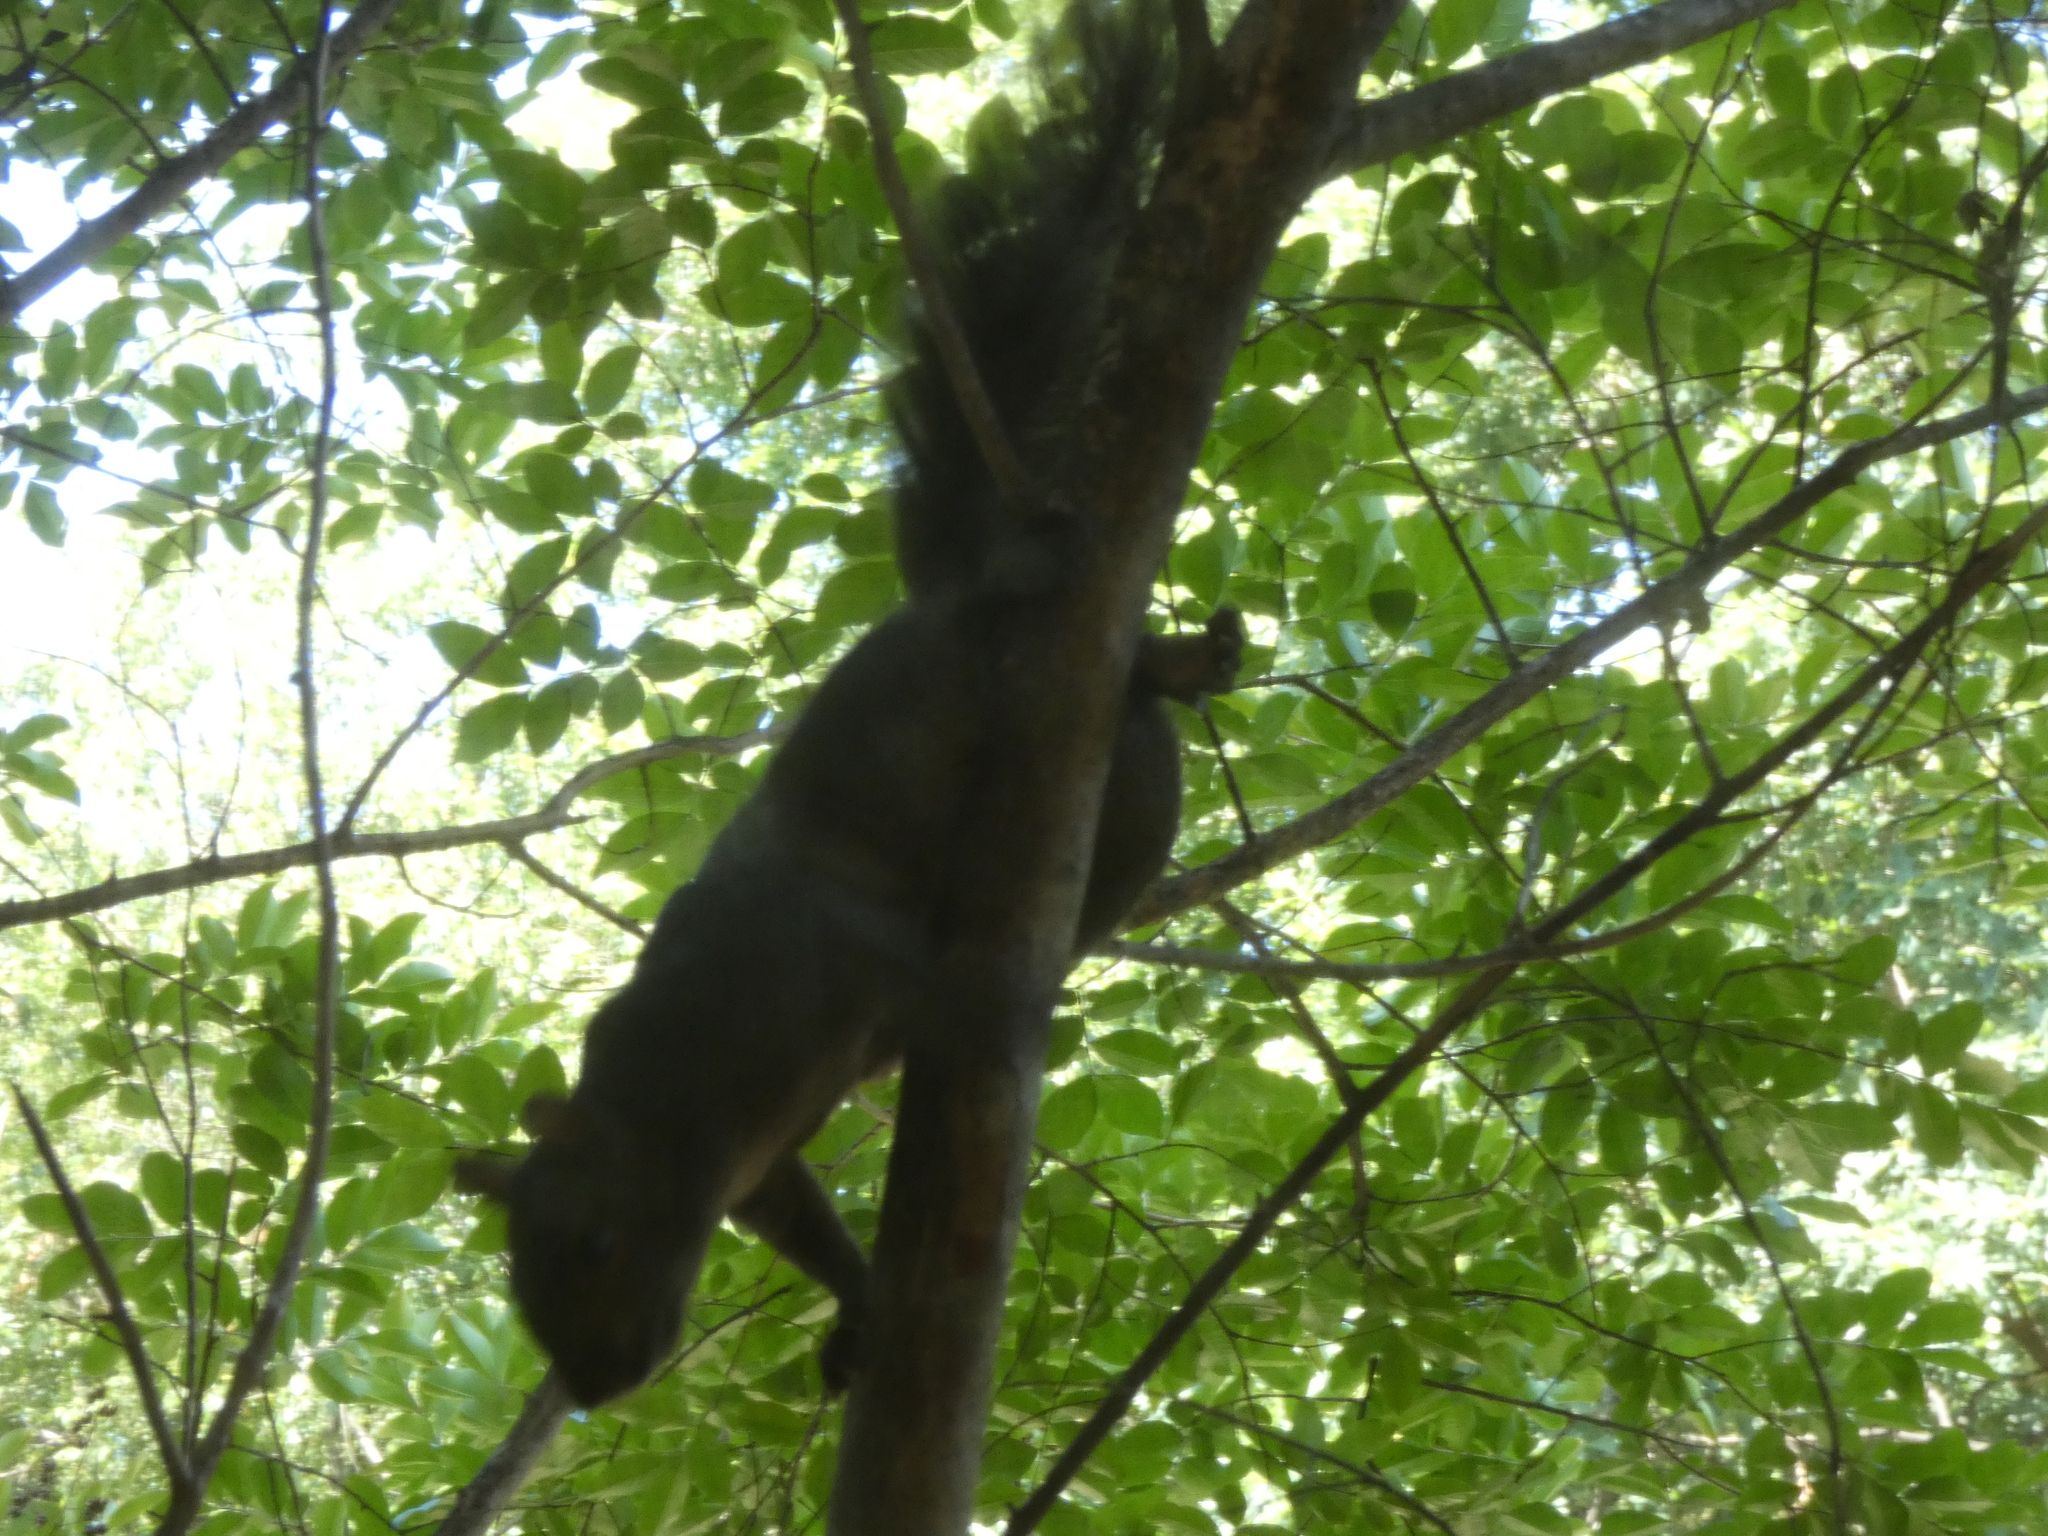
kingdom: Animalia
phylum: Chordata
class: Mammalia
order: Rodentia
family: Sciuridae
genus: Sciurus
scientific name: Sciurus carolinensis
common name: Eastern gray squirrel
